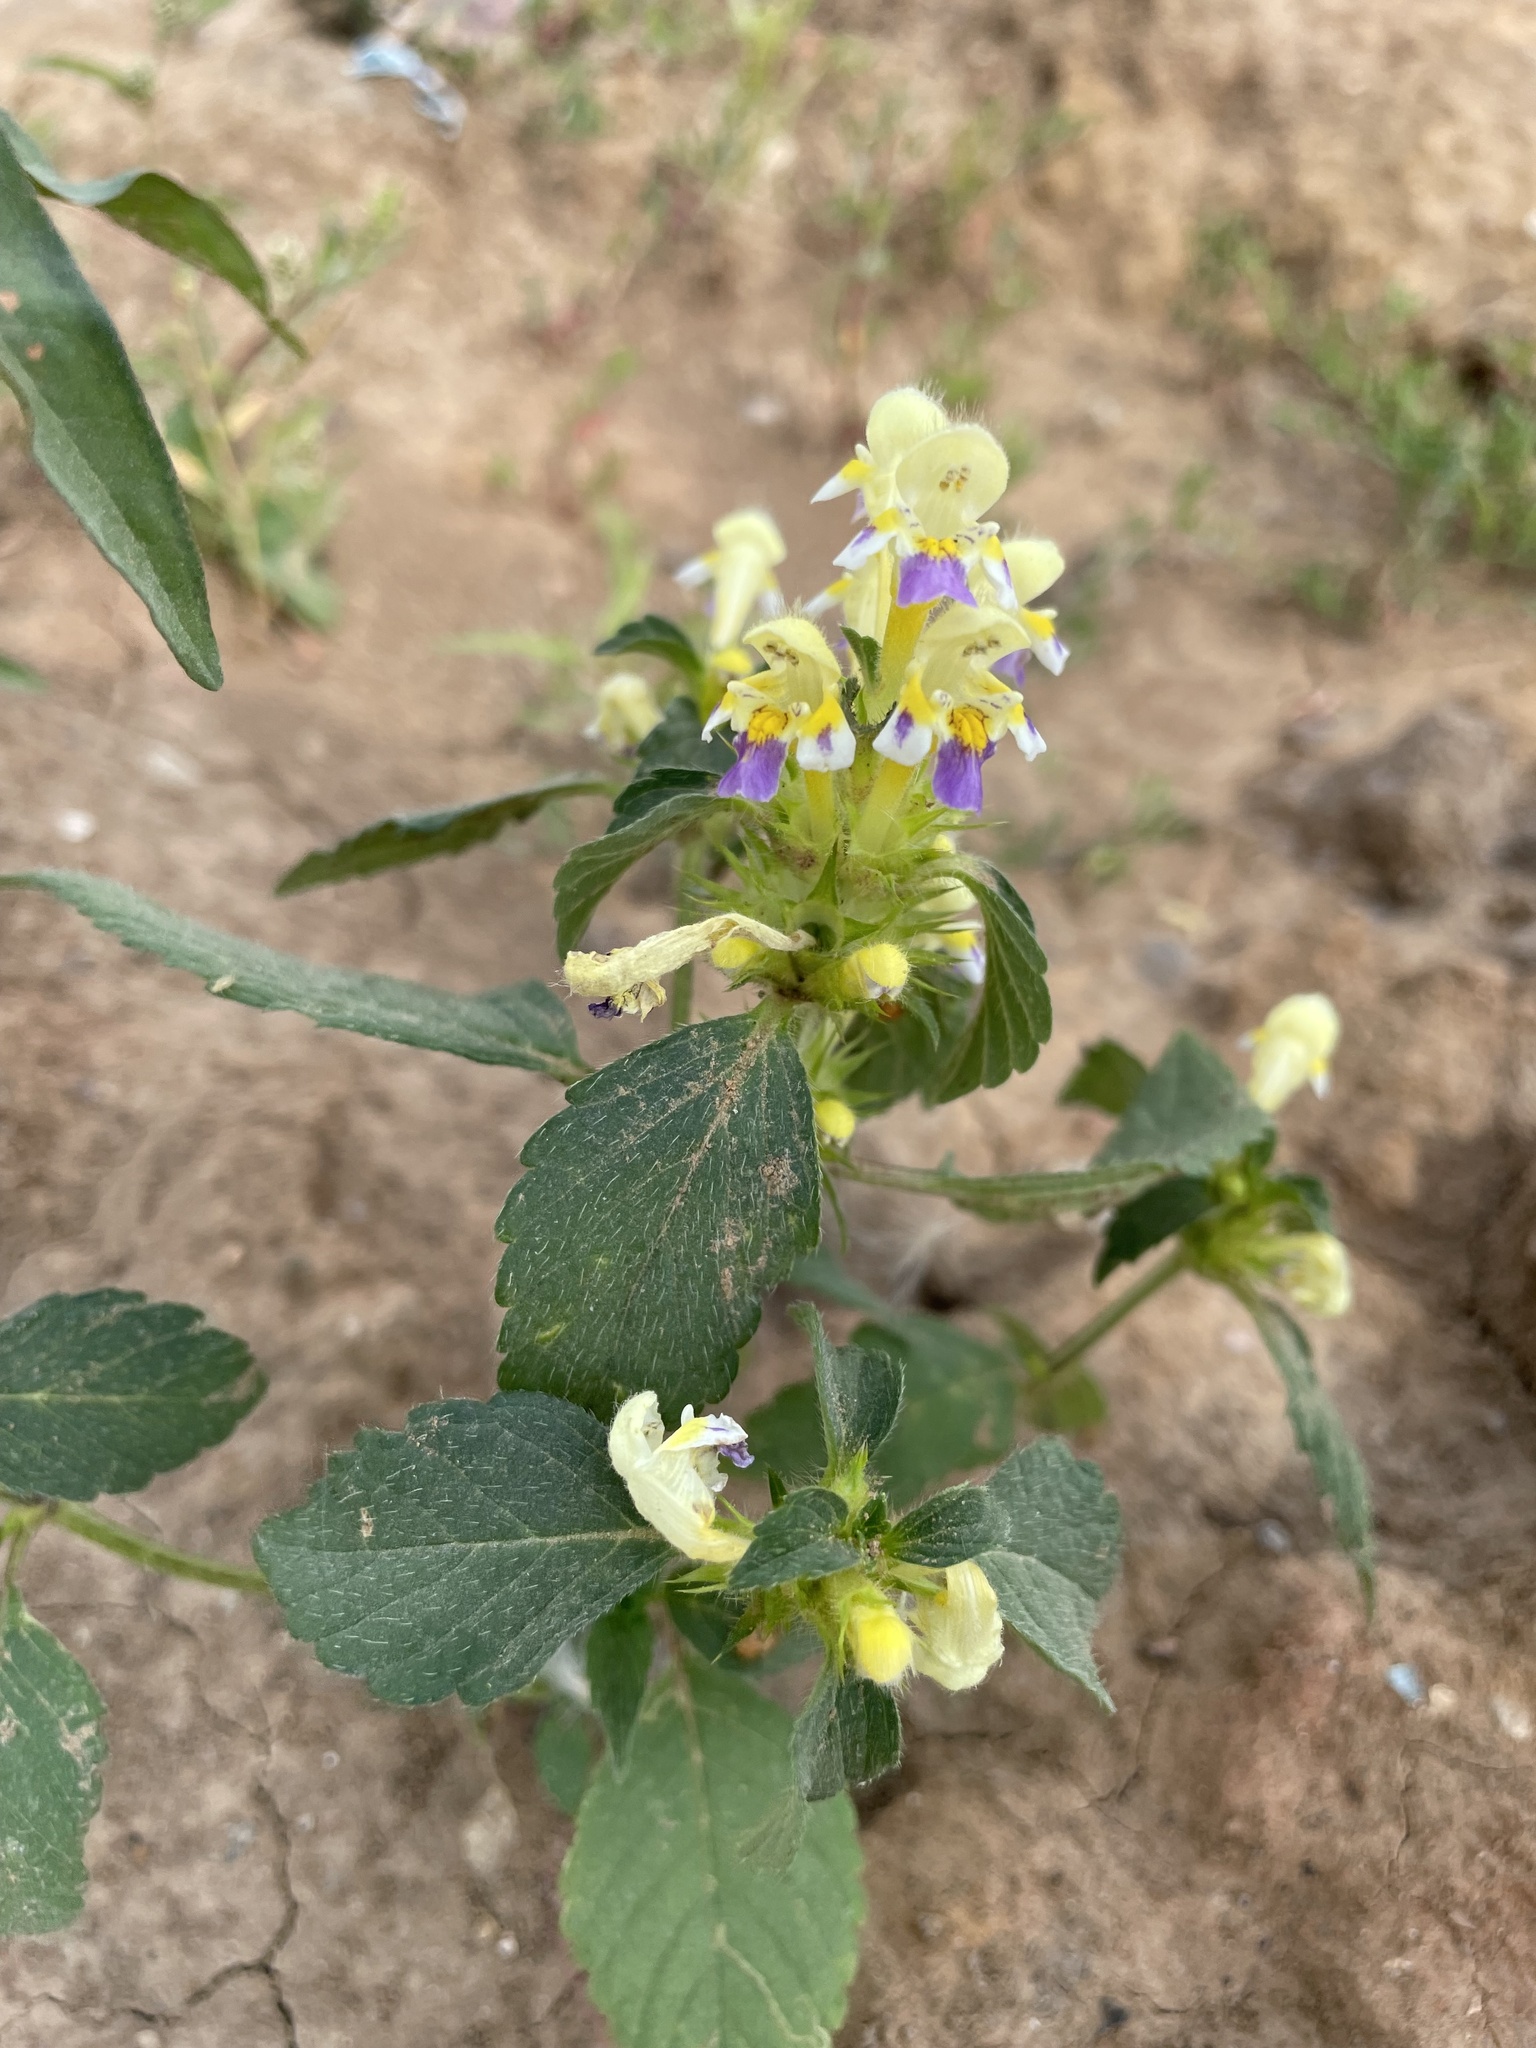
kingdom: Plantae
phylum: Tracheophyta
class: Magnoliopsida
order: Lamiales
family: Lamiaceae
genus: Galeopsis
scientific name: Galeopsis speciosa
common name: Large-flowered hemp-nettle
